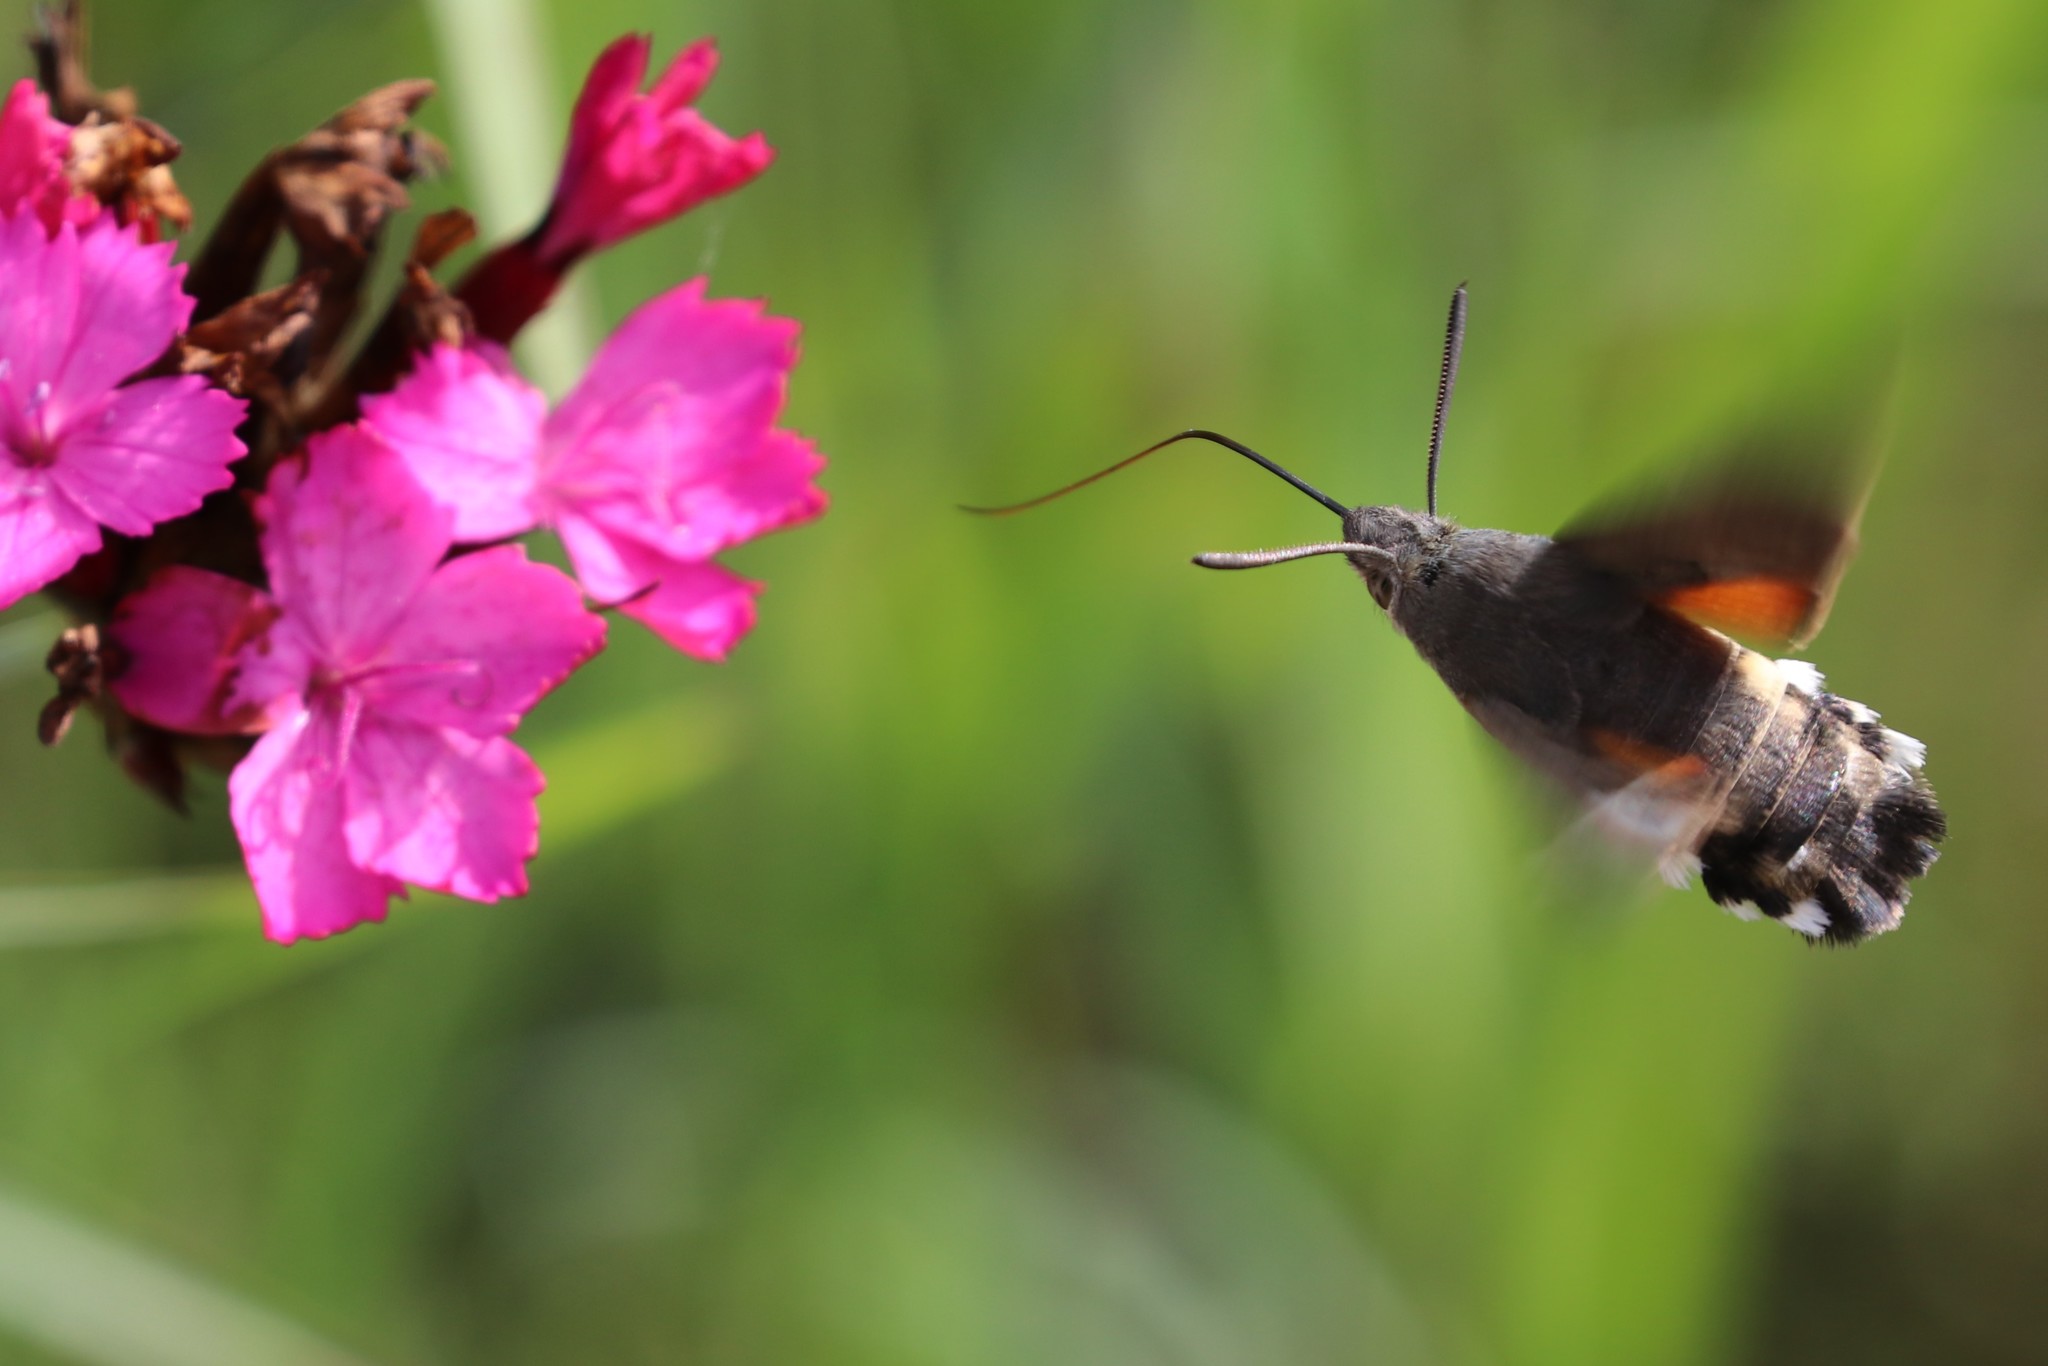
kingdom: Animalia
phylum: Arthropoda
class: Insecta
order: Lepidoptera
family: Sphingidae
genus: Macroglossum
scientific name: Macroglossum stellatarum
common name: Humming-bird hawk-moth
